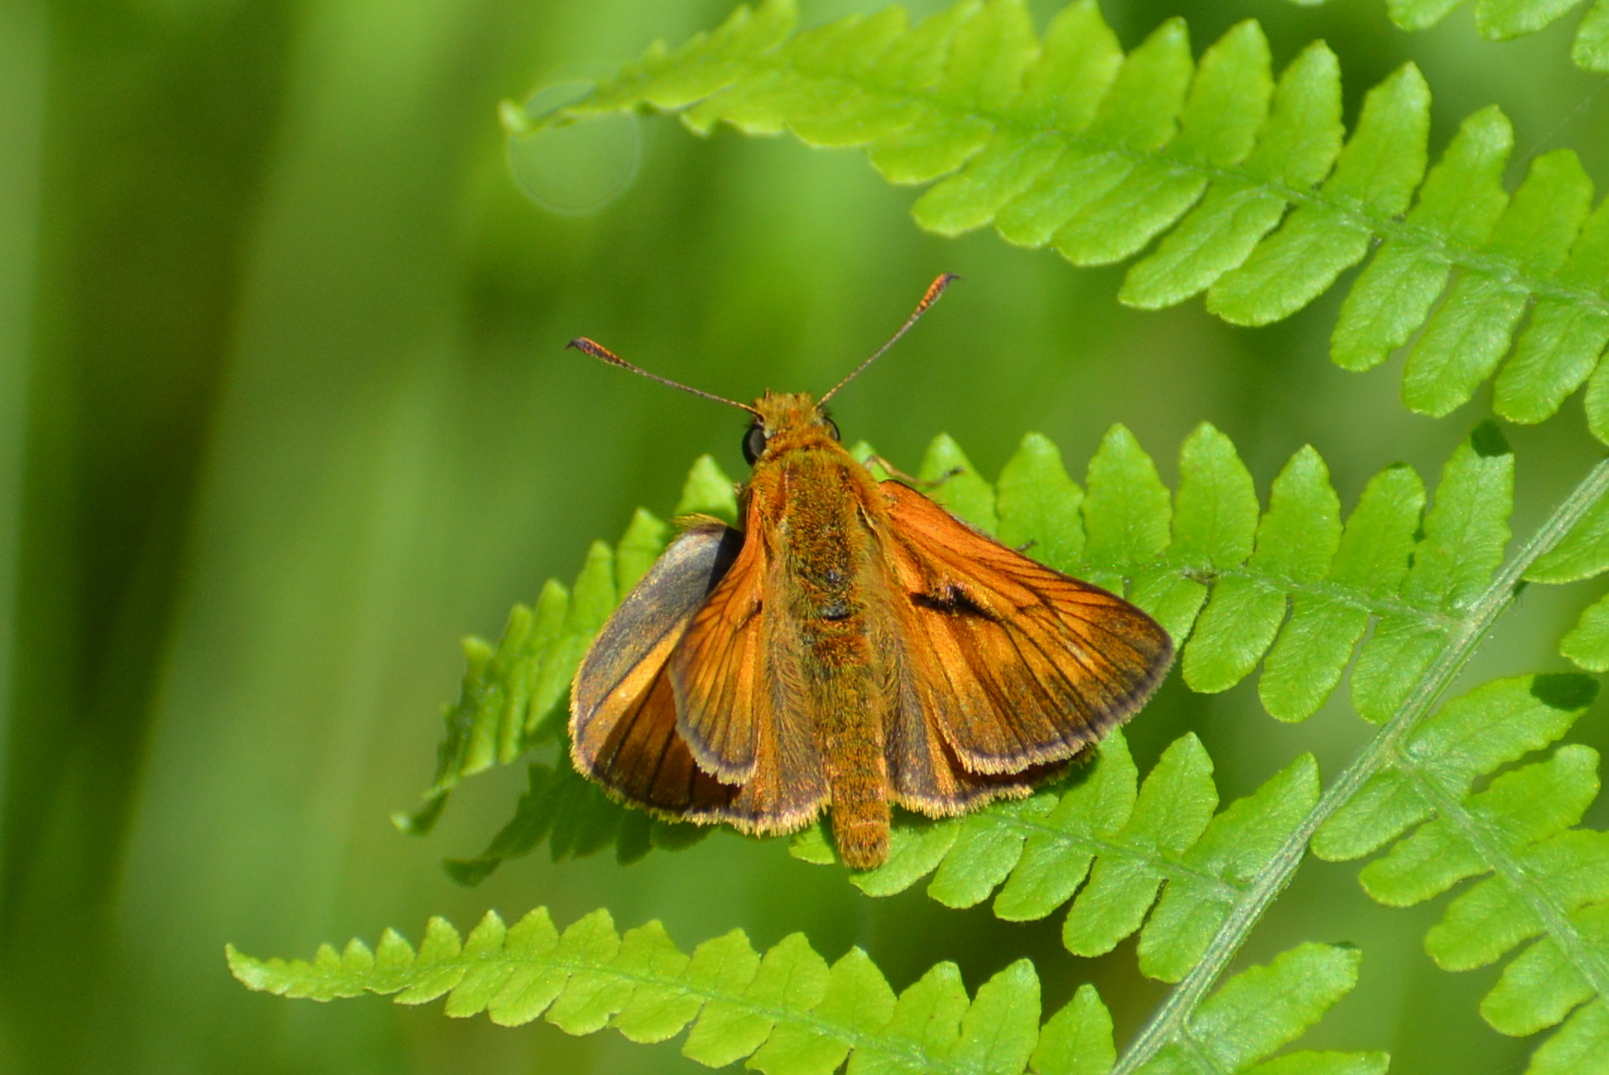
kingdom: Animalia
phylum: Arthropoda
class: Insecta
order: Lepidoptera
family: Hesperiidae
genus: Ochlodes
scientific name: Ochlodes venata
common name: Large skipper
